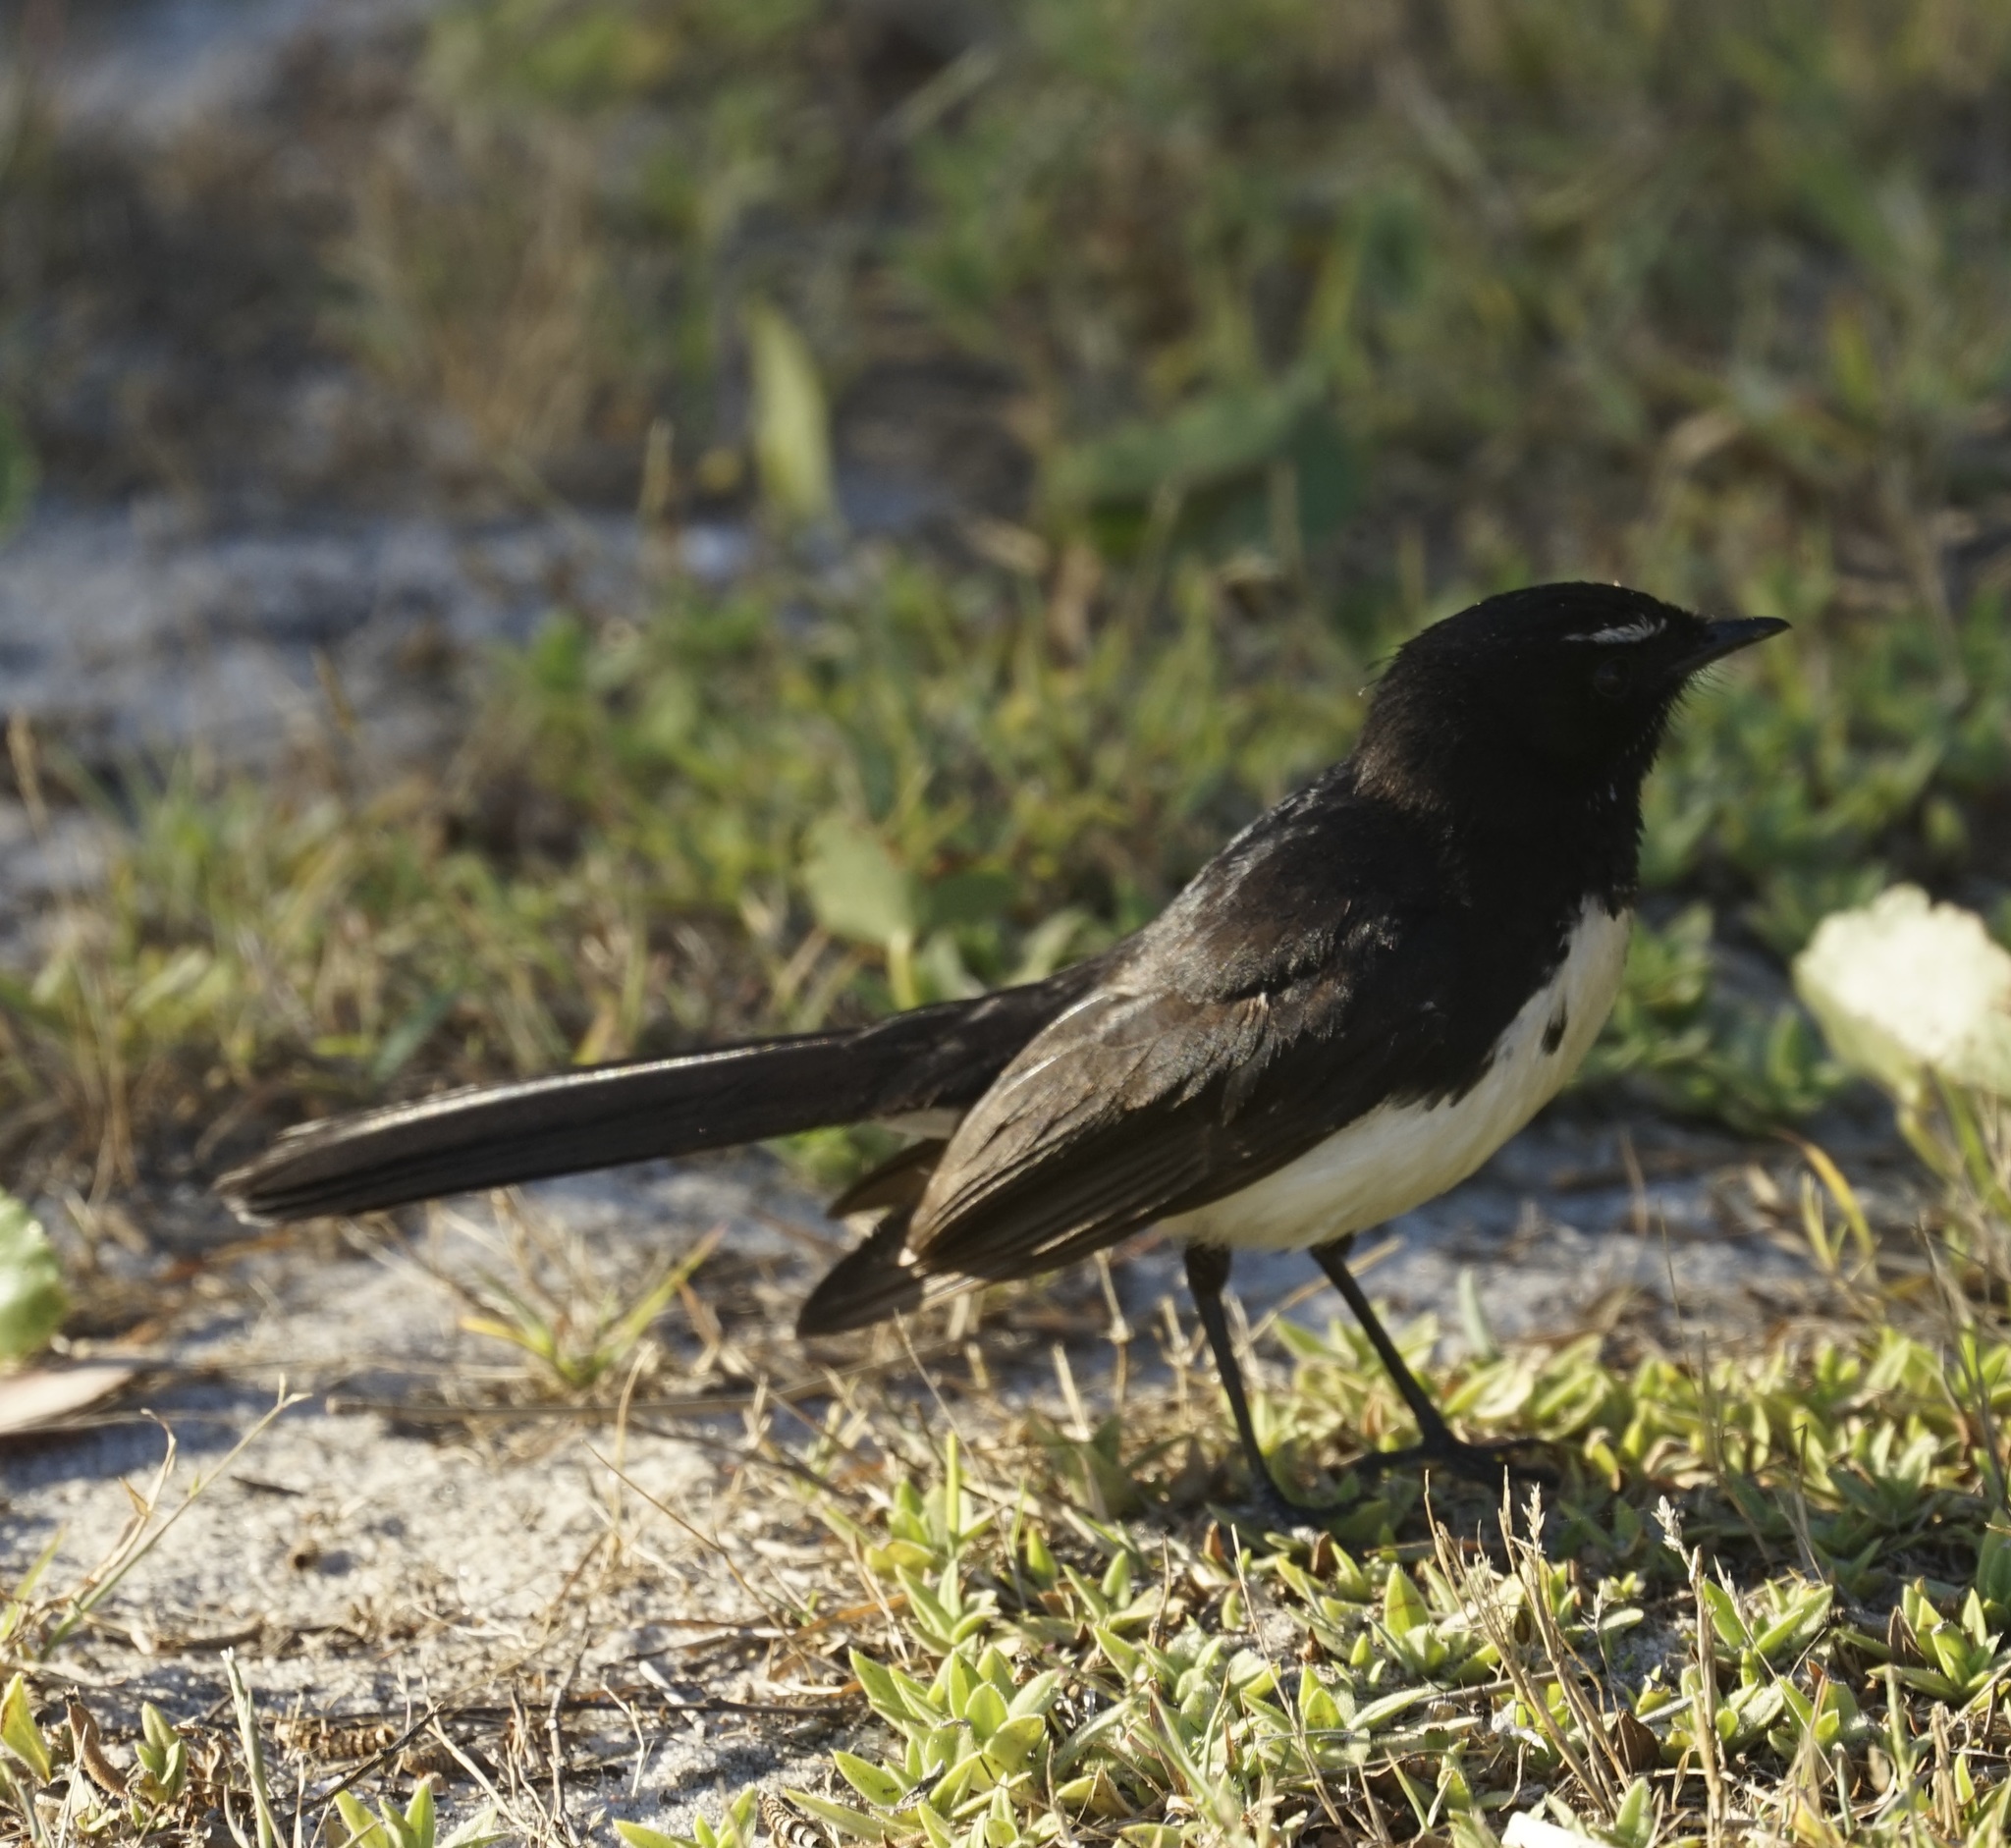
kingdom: Animalia
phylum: Chordata
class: Aves
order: Passeriformes
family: Rhipiduridae
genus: Rhipidura
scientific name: Rhipidura leucophrys
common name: Willie wagtail
